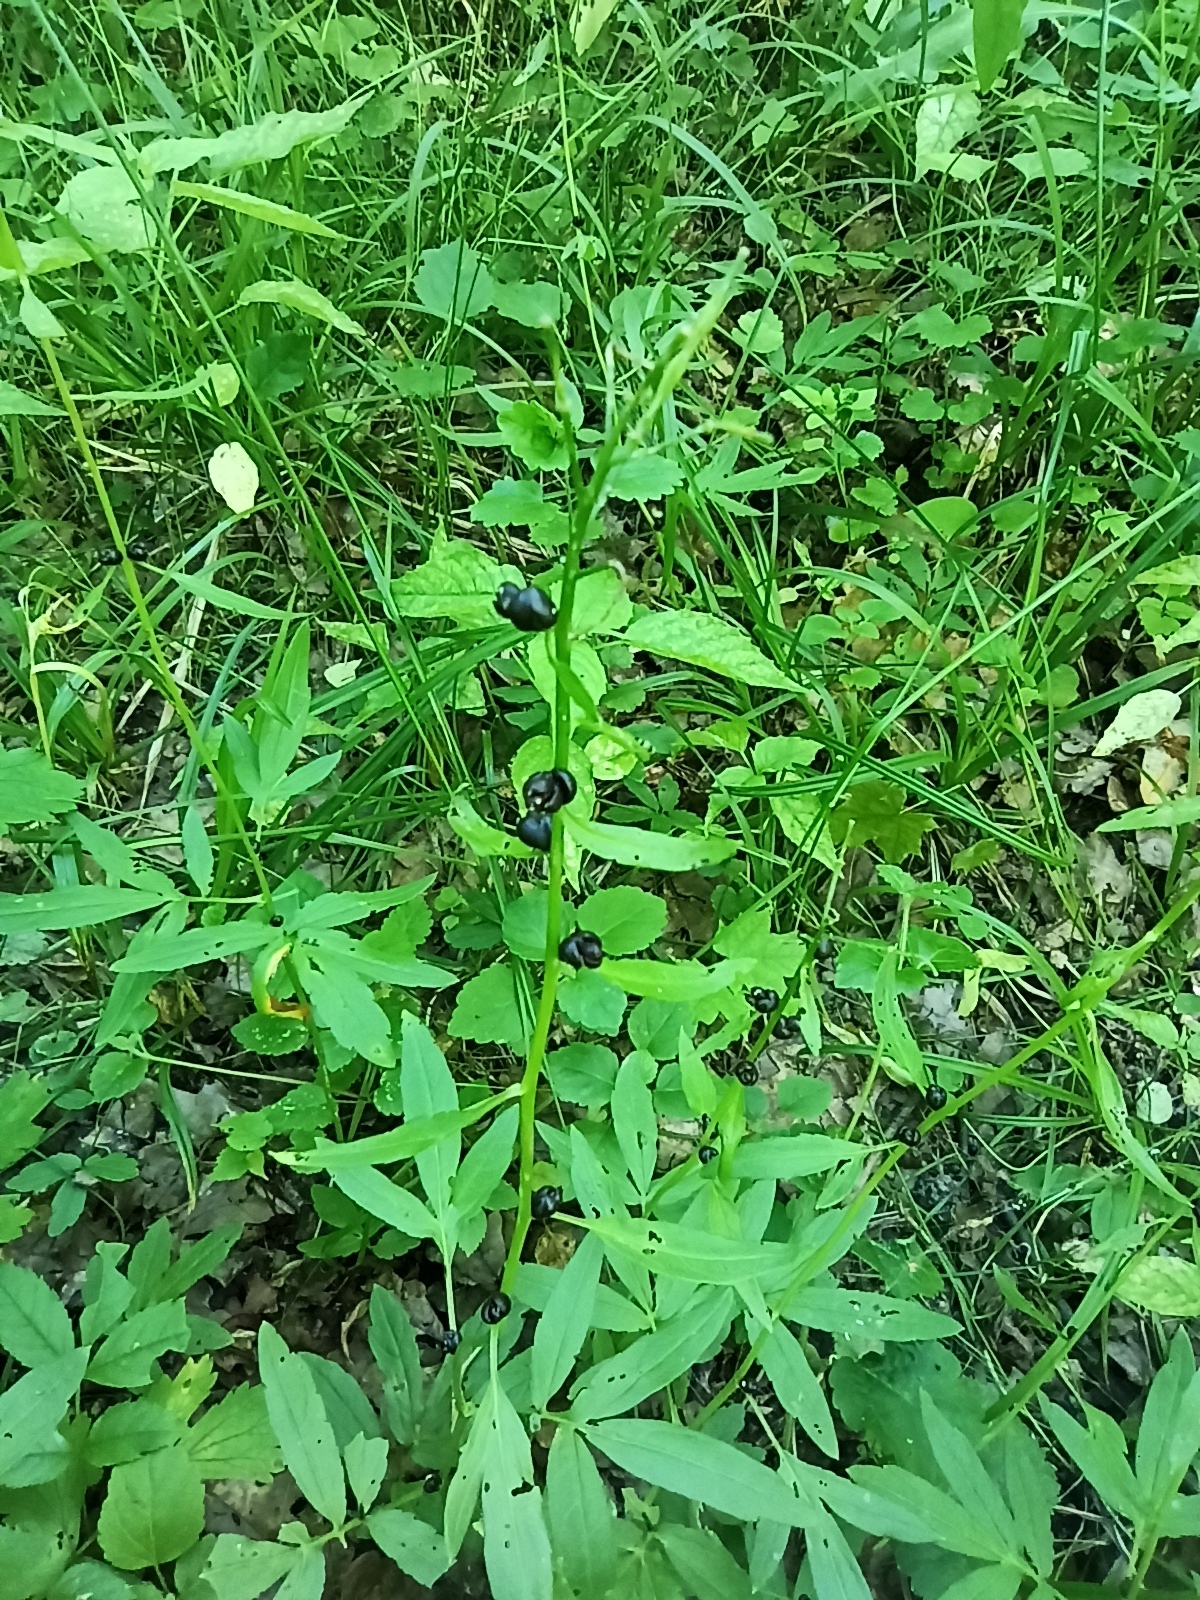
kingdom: Plantae
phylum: Tracheophyta
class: Magnoliopsida
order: Brassicales
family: Brassicaceae
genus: Cardamine
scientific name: Cardamine bulbifera
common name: Coralroot bittercress
